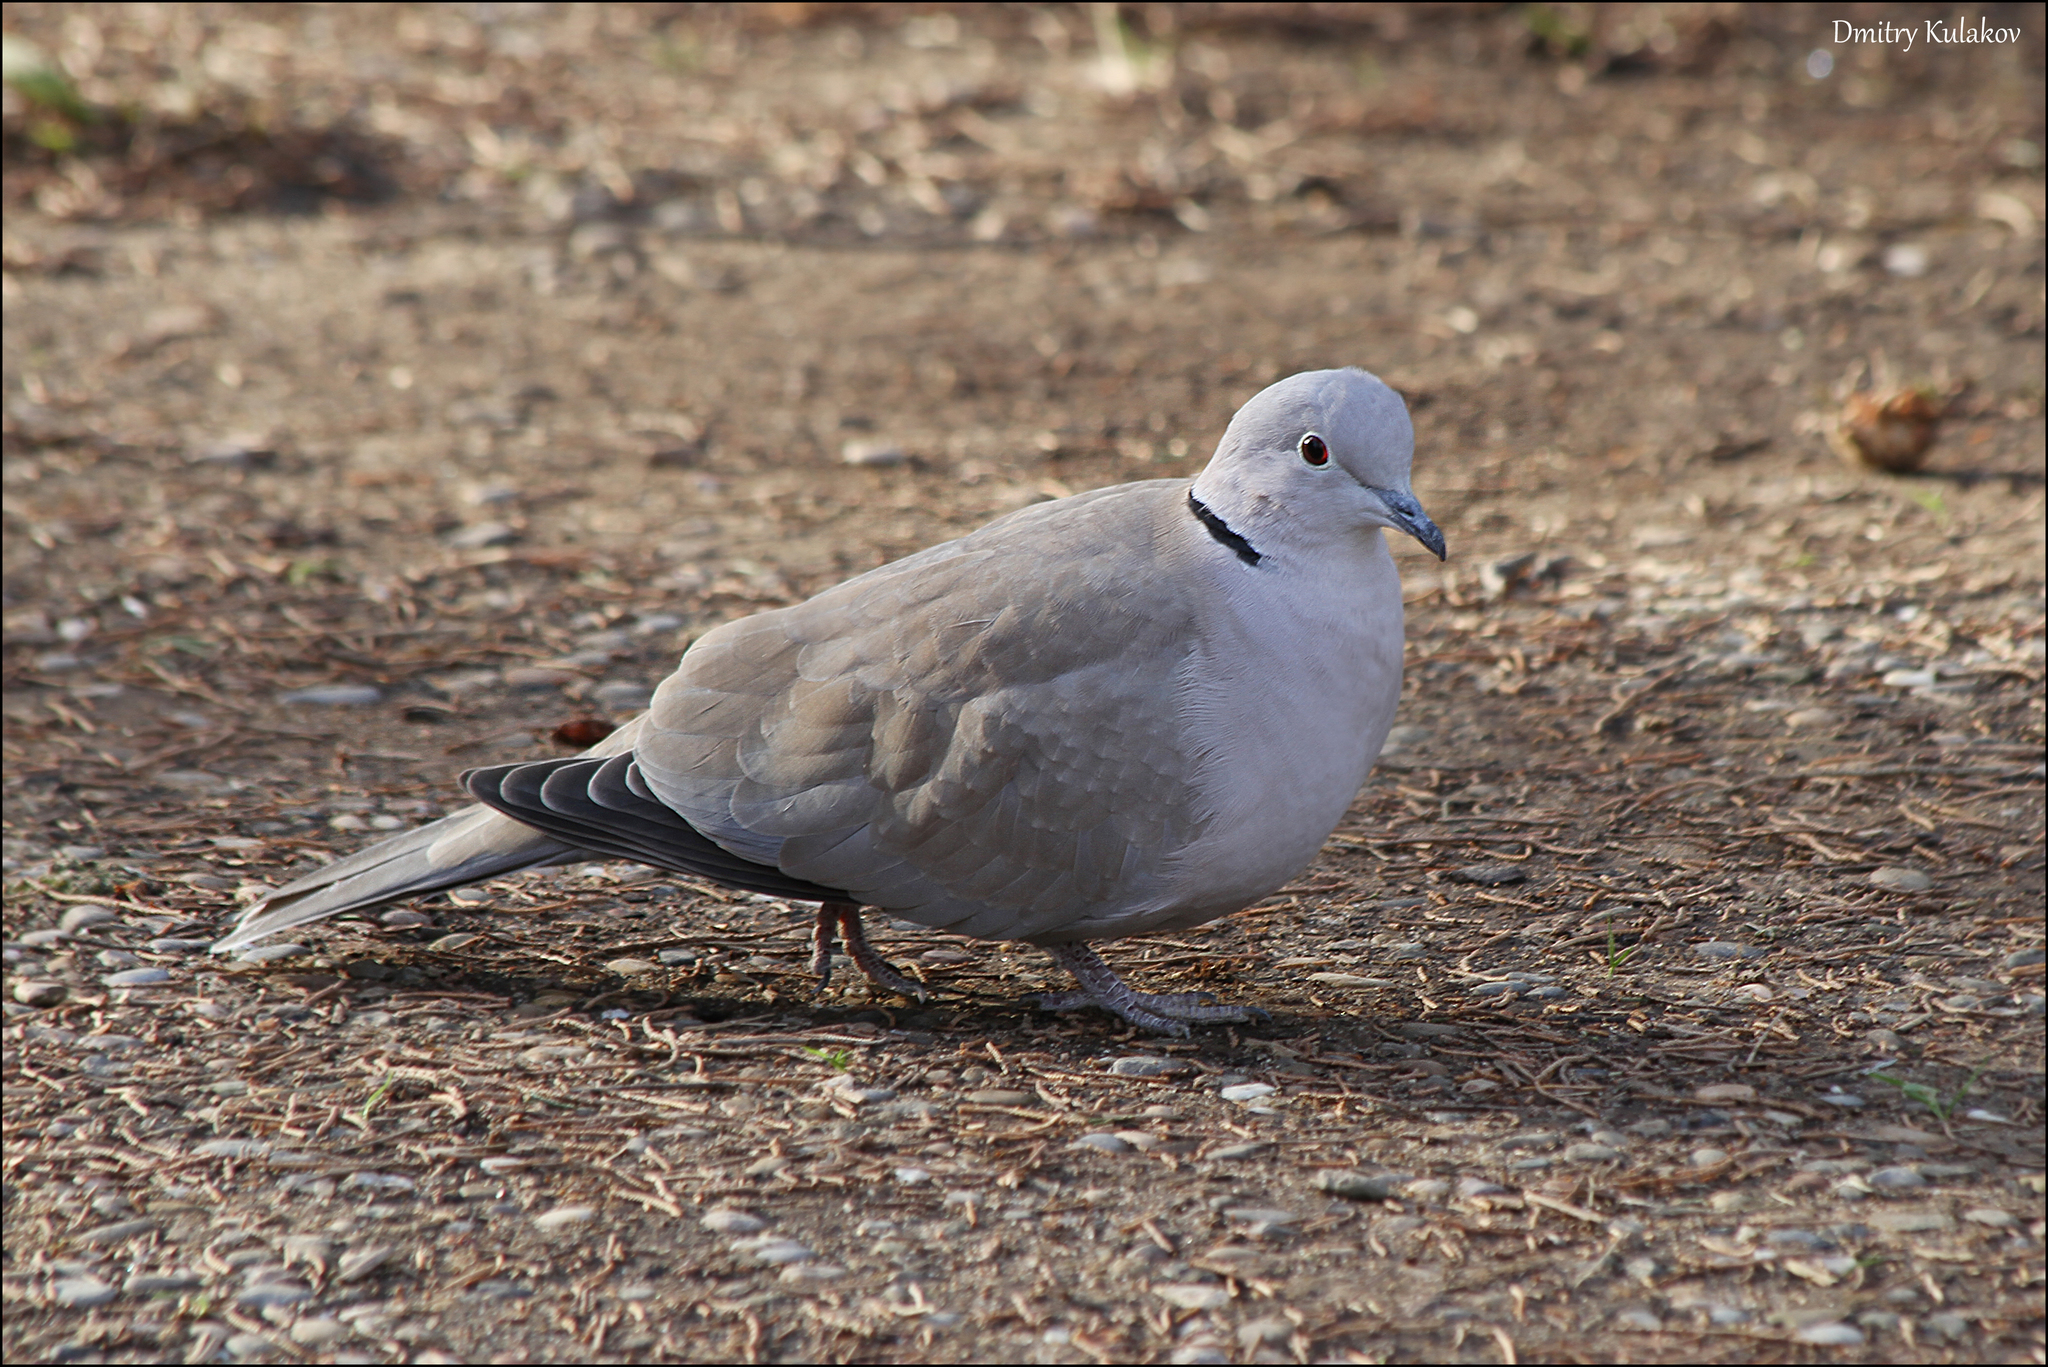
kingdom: Animalia
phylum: Chordata
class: Aves
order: Columbiformes
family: Columbidae
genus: Streptopelia
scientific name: Streptopelia decaocto
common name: Eurasian collared dove
